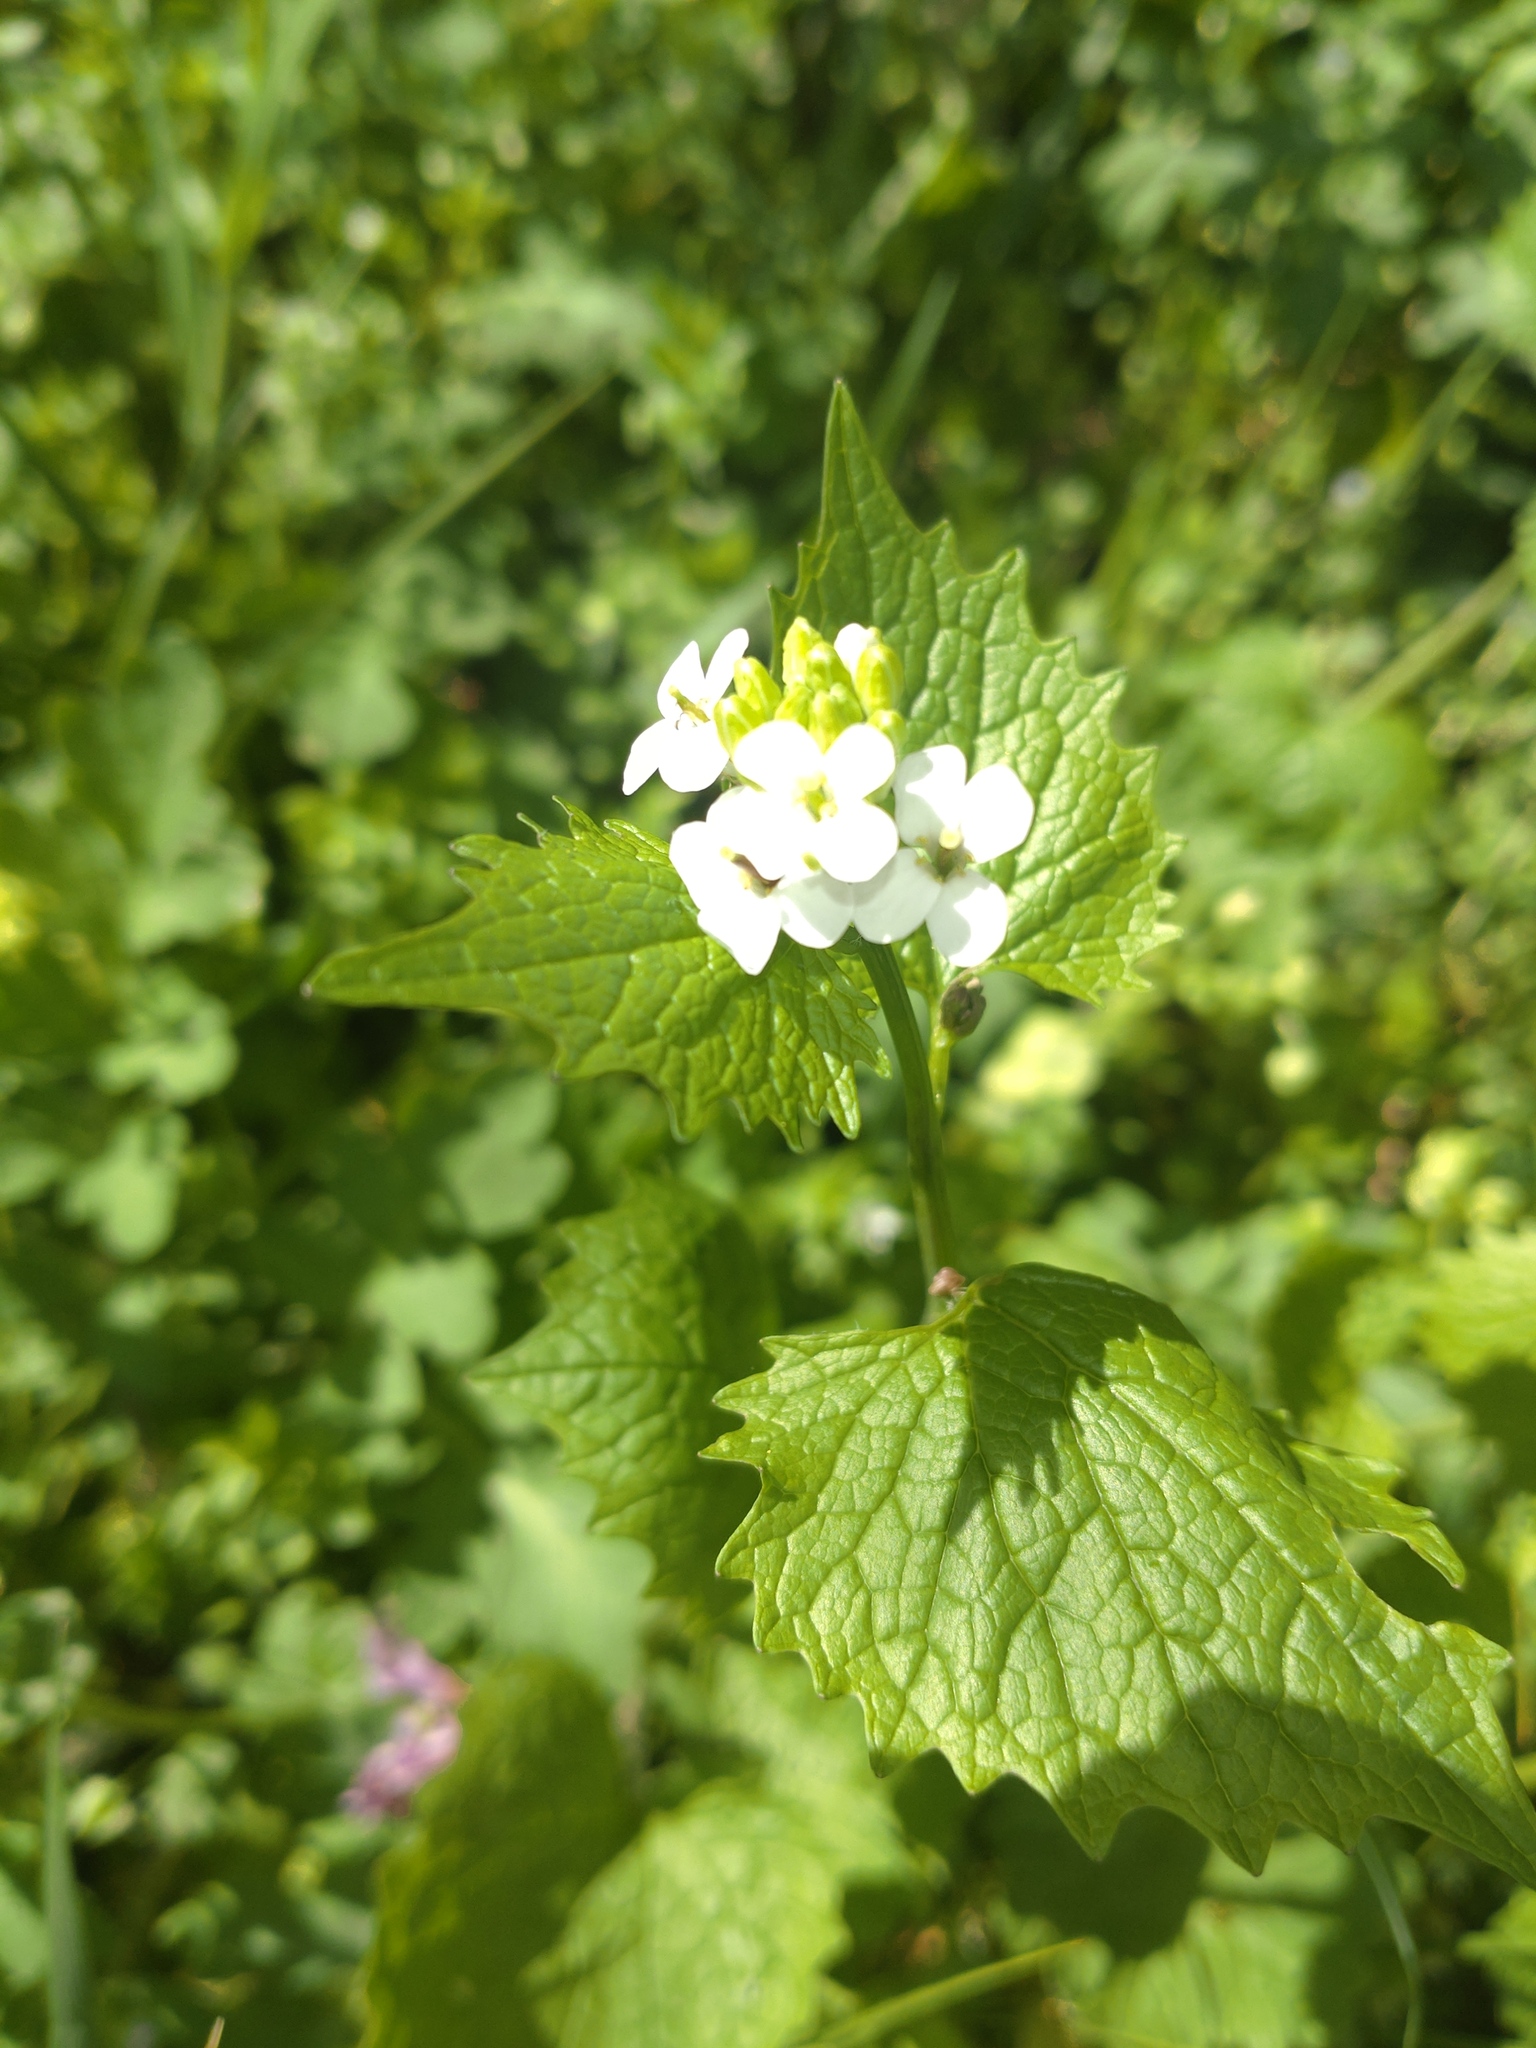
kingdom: Plantae
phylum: Tracheophyta
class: Magnoliopsida
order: Brassicales
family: Brassicaceae
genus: Alliaria
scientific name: Alliaria petiolata
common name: Garlic mustard
